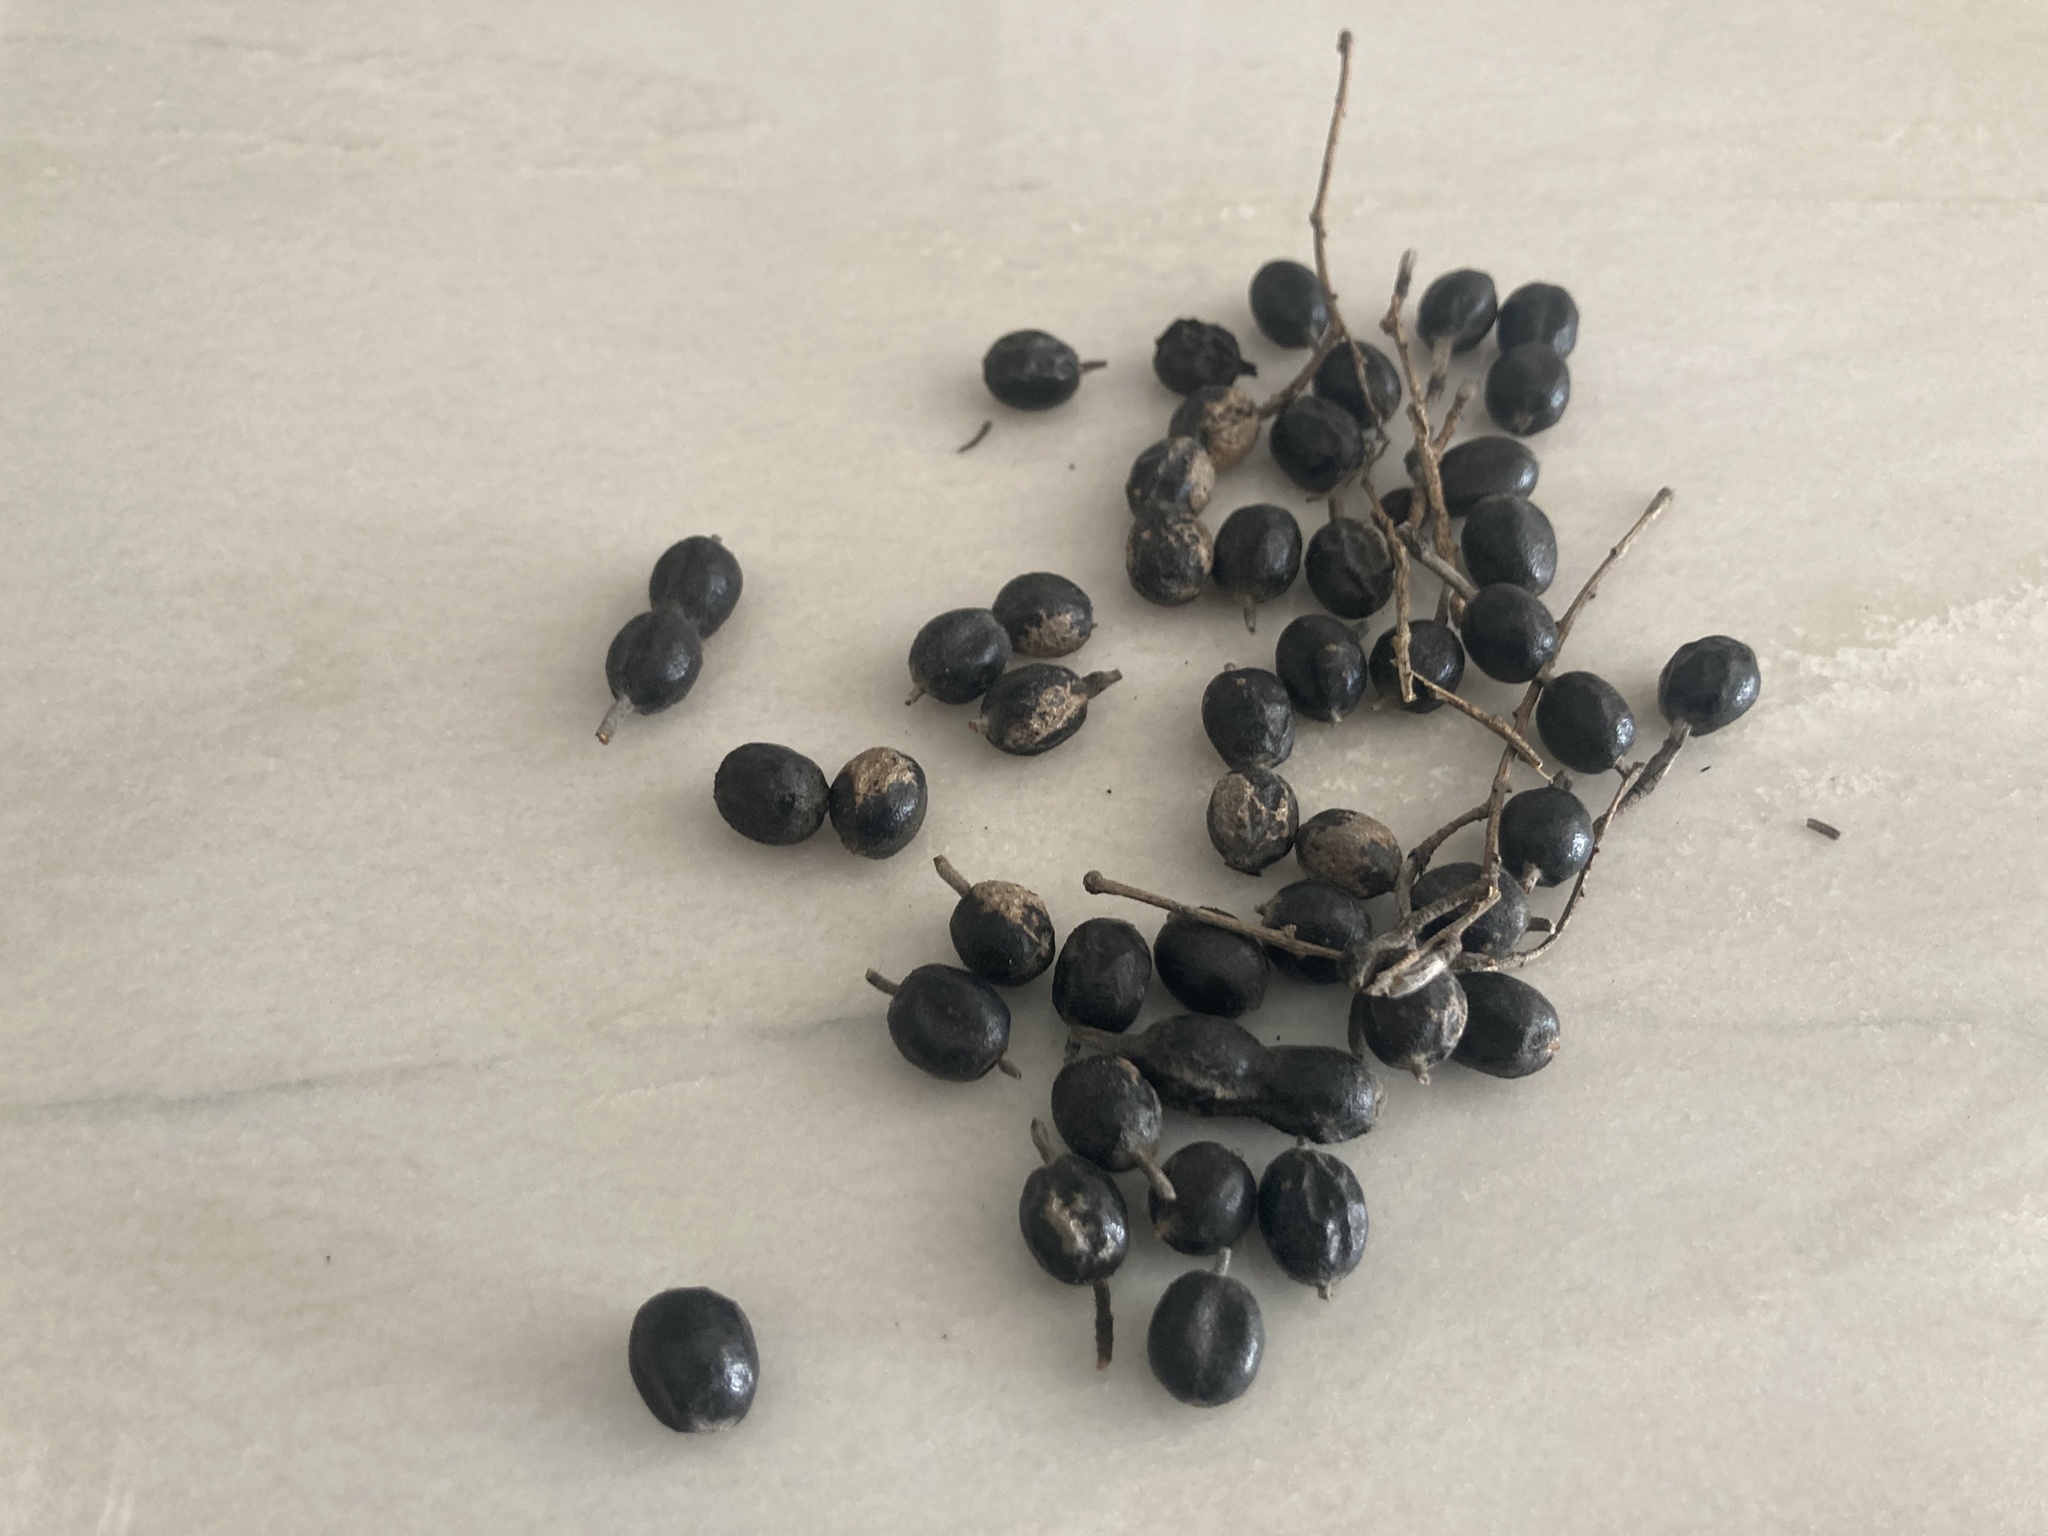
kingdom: Plantae
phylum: Tracheophyta
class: Magnoliopsida
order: Fabales
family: Fabaceae
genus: Styphnolobium
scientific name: Styphnolobium affine
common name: Texas sophora
